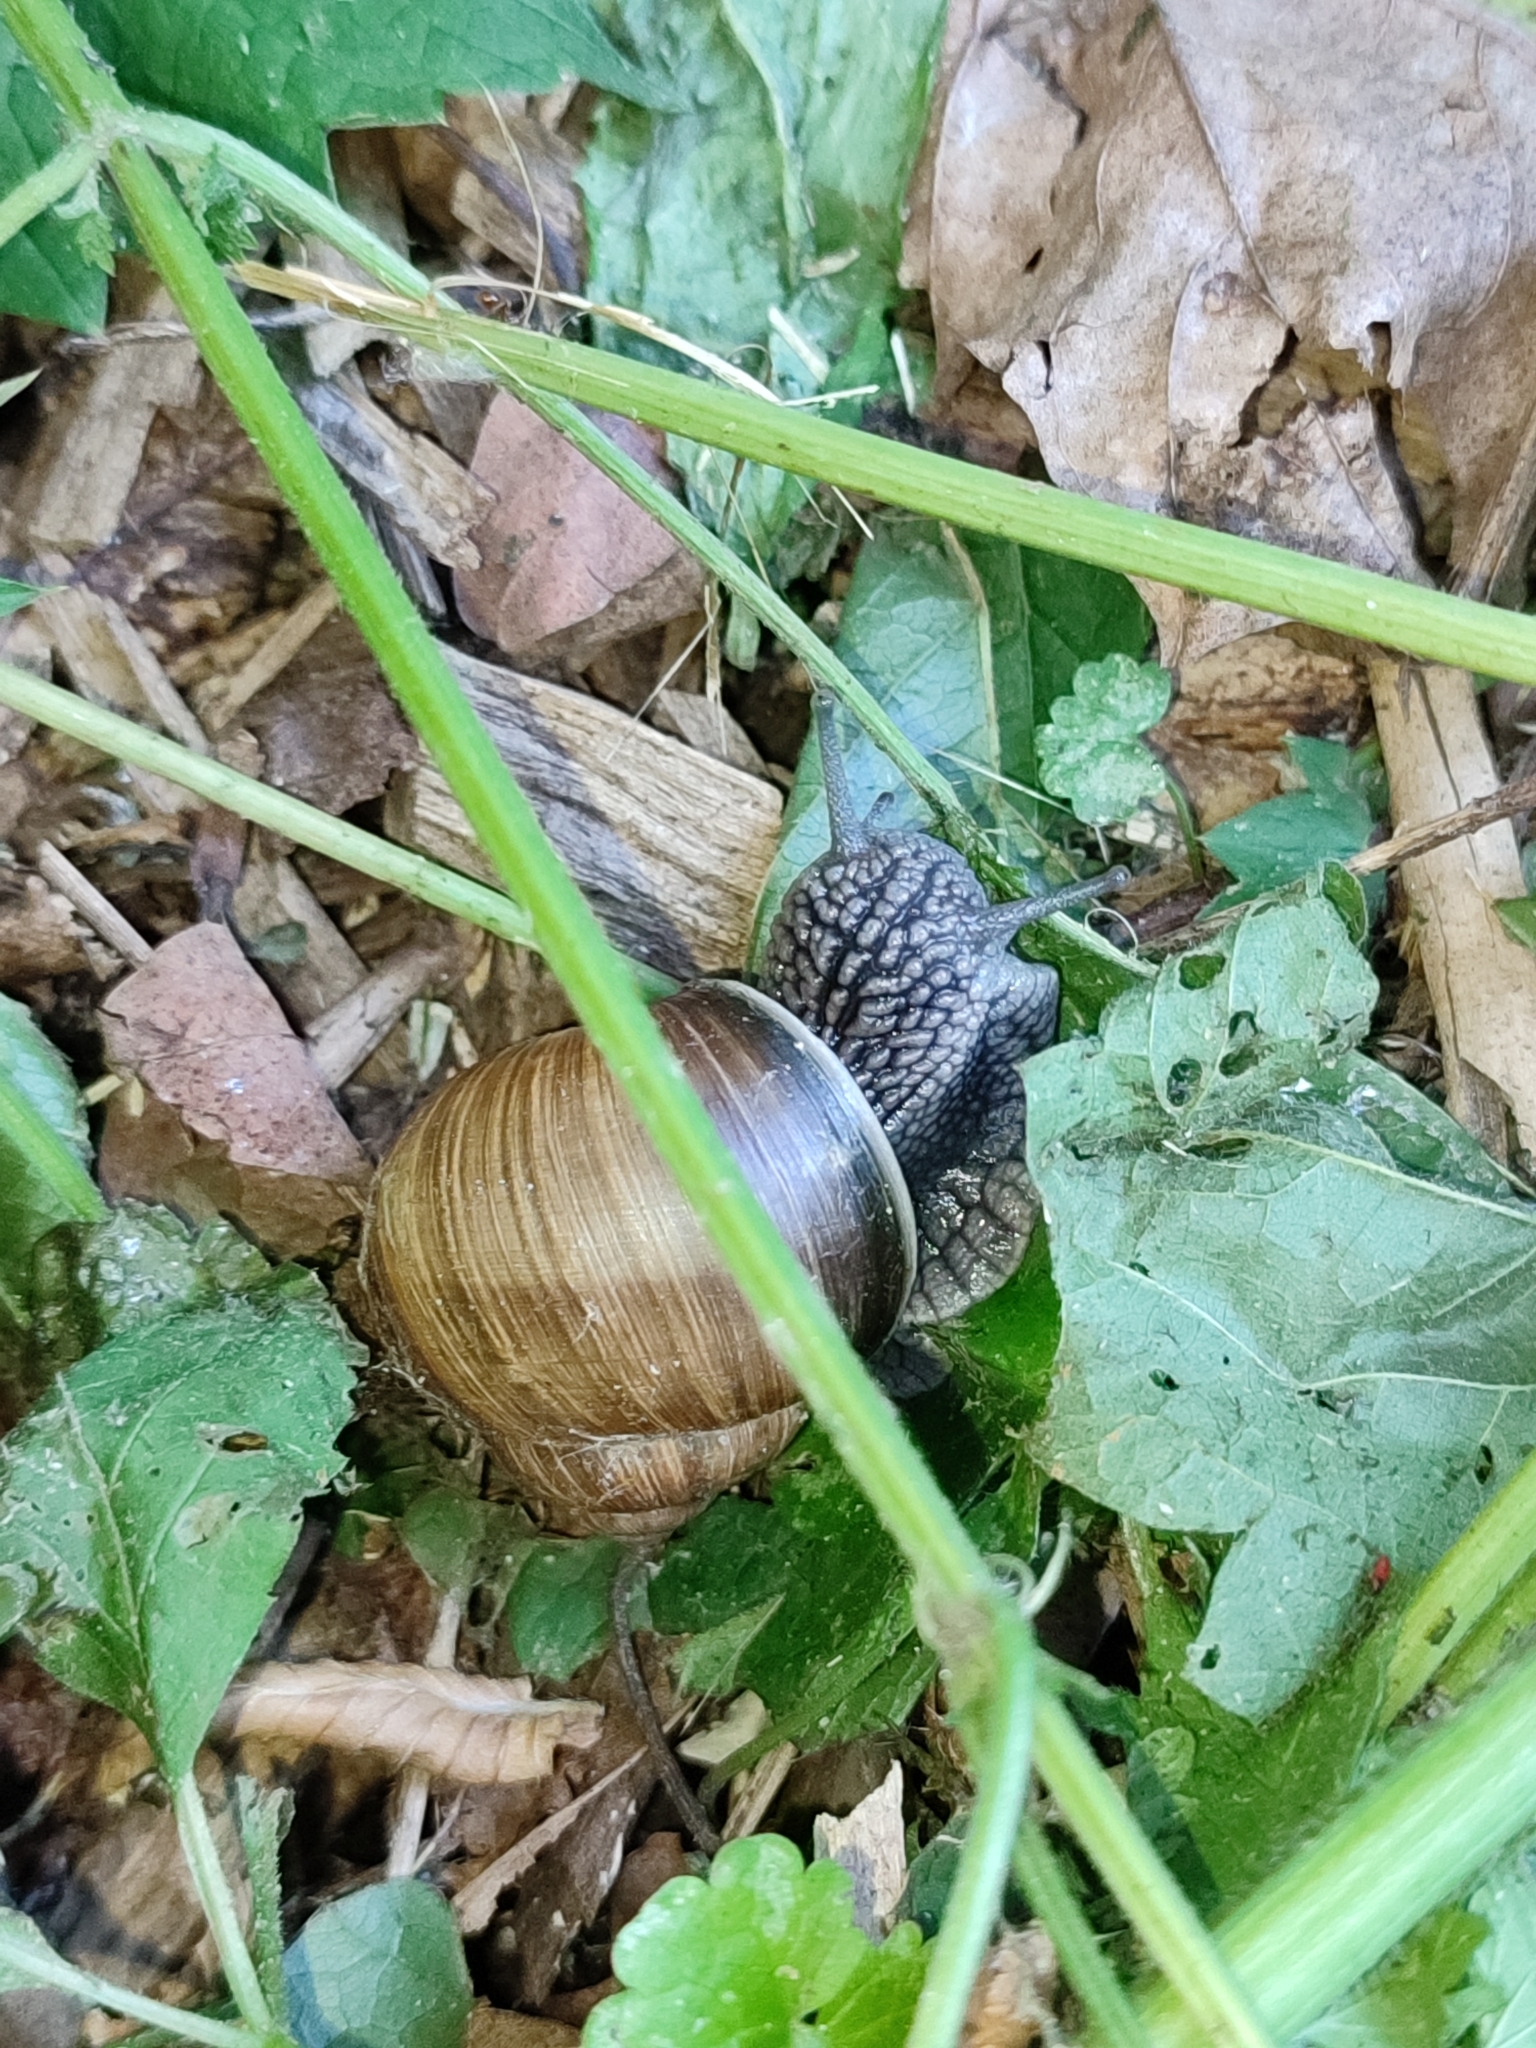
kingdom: Animalia
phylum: Mollusca
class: Gastropoda
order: Stylommatophora
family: Helicidae
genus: Helix
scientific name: Helix pomatia
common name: Roman snail
